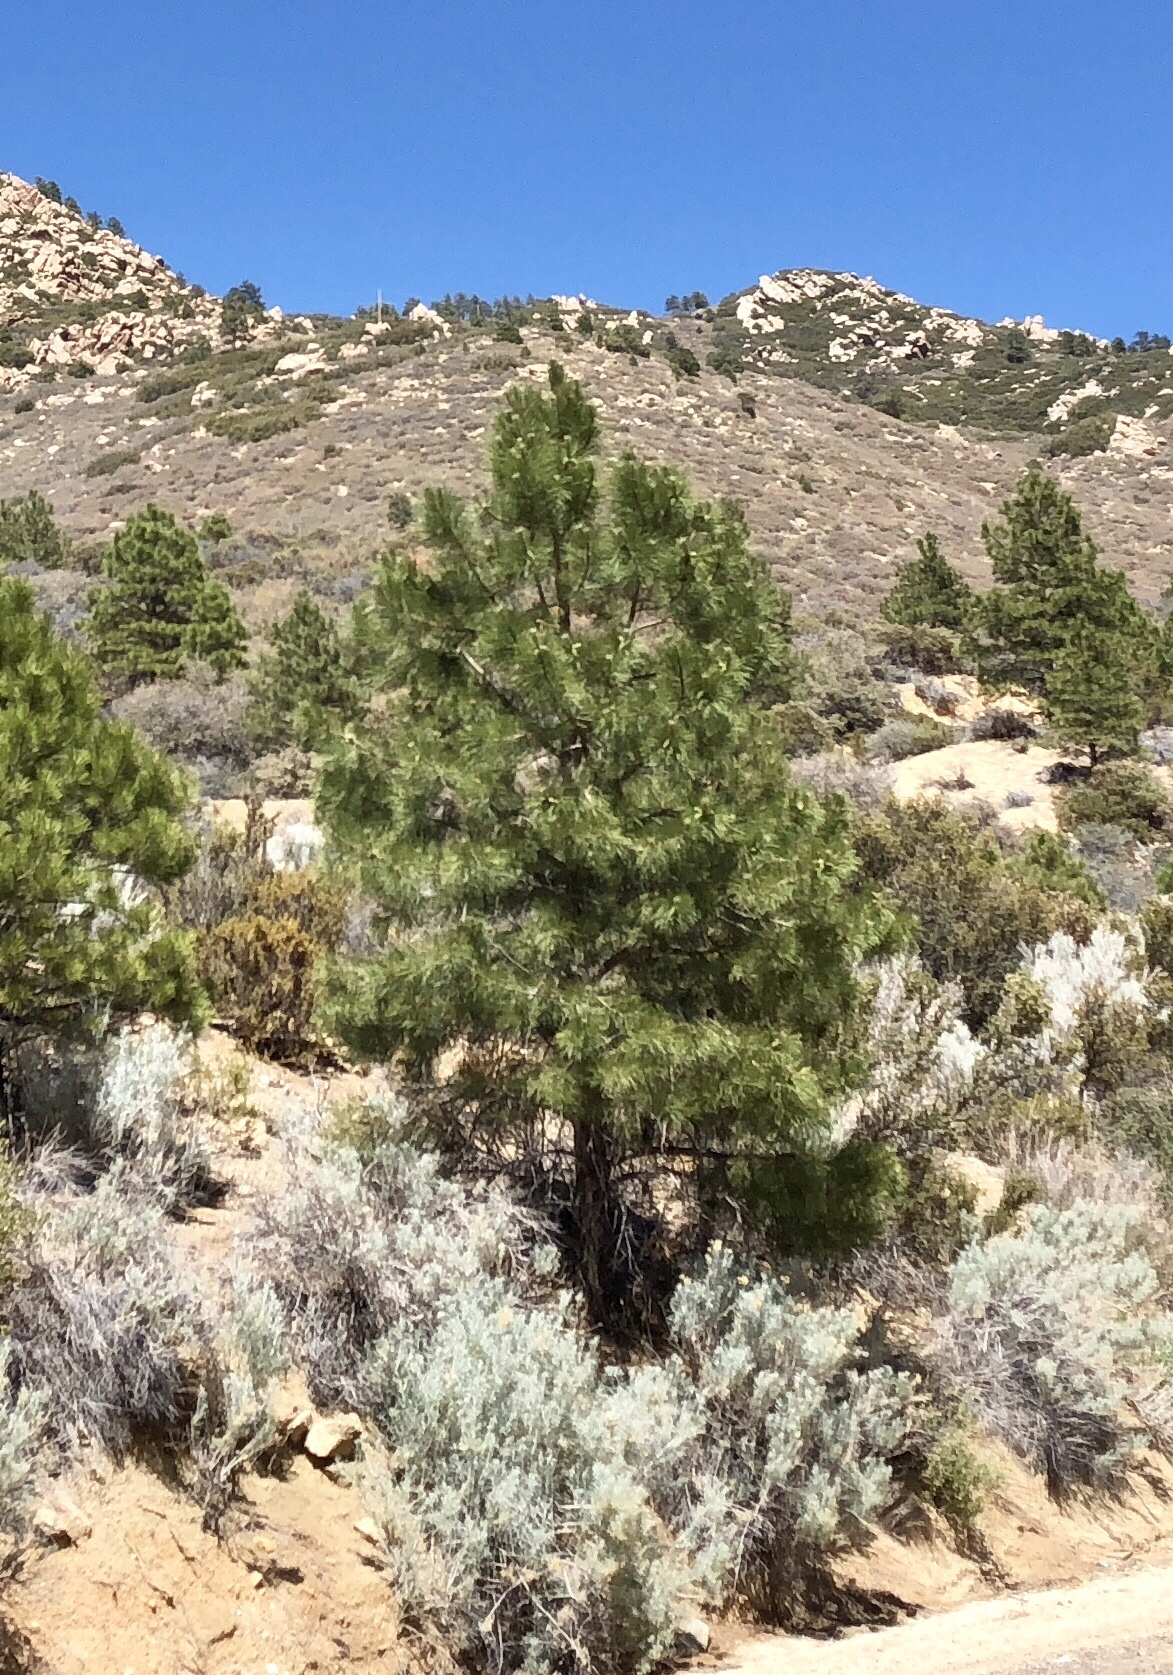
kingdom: Plantae
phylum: Tracheophyta
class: Pinopsida
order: Pinales
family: Pinaceae
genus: Pinus
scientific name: Pinus ponderosa
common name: Western yellow-pine
